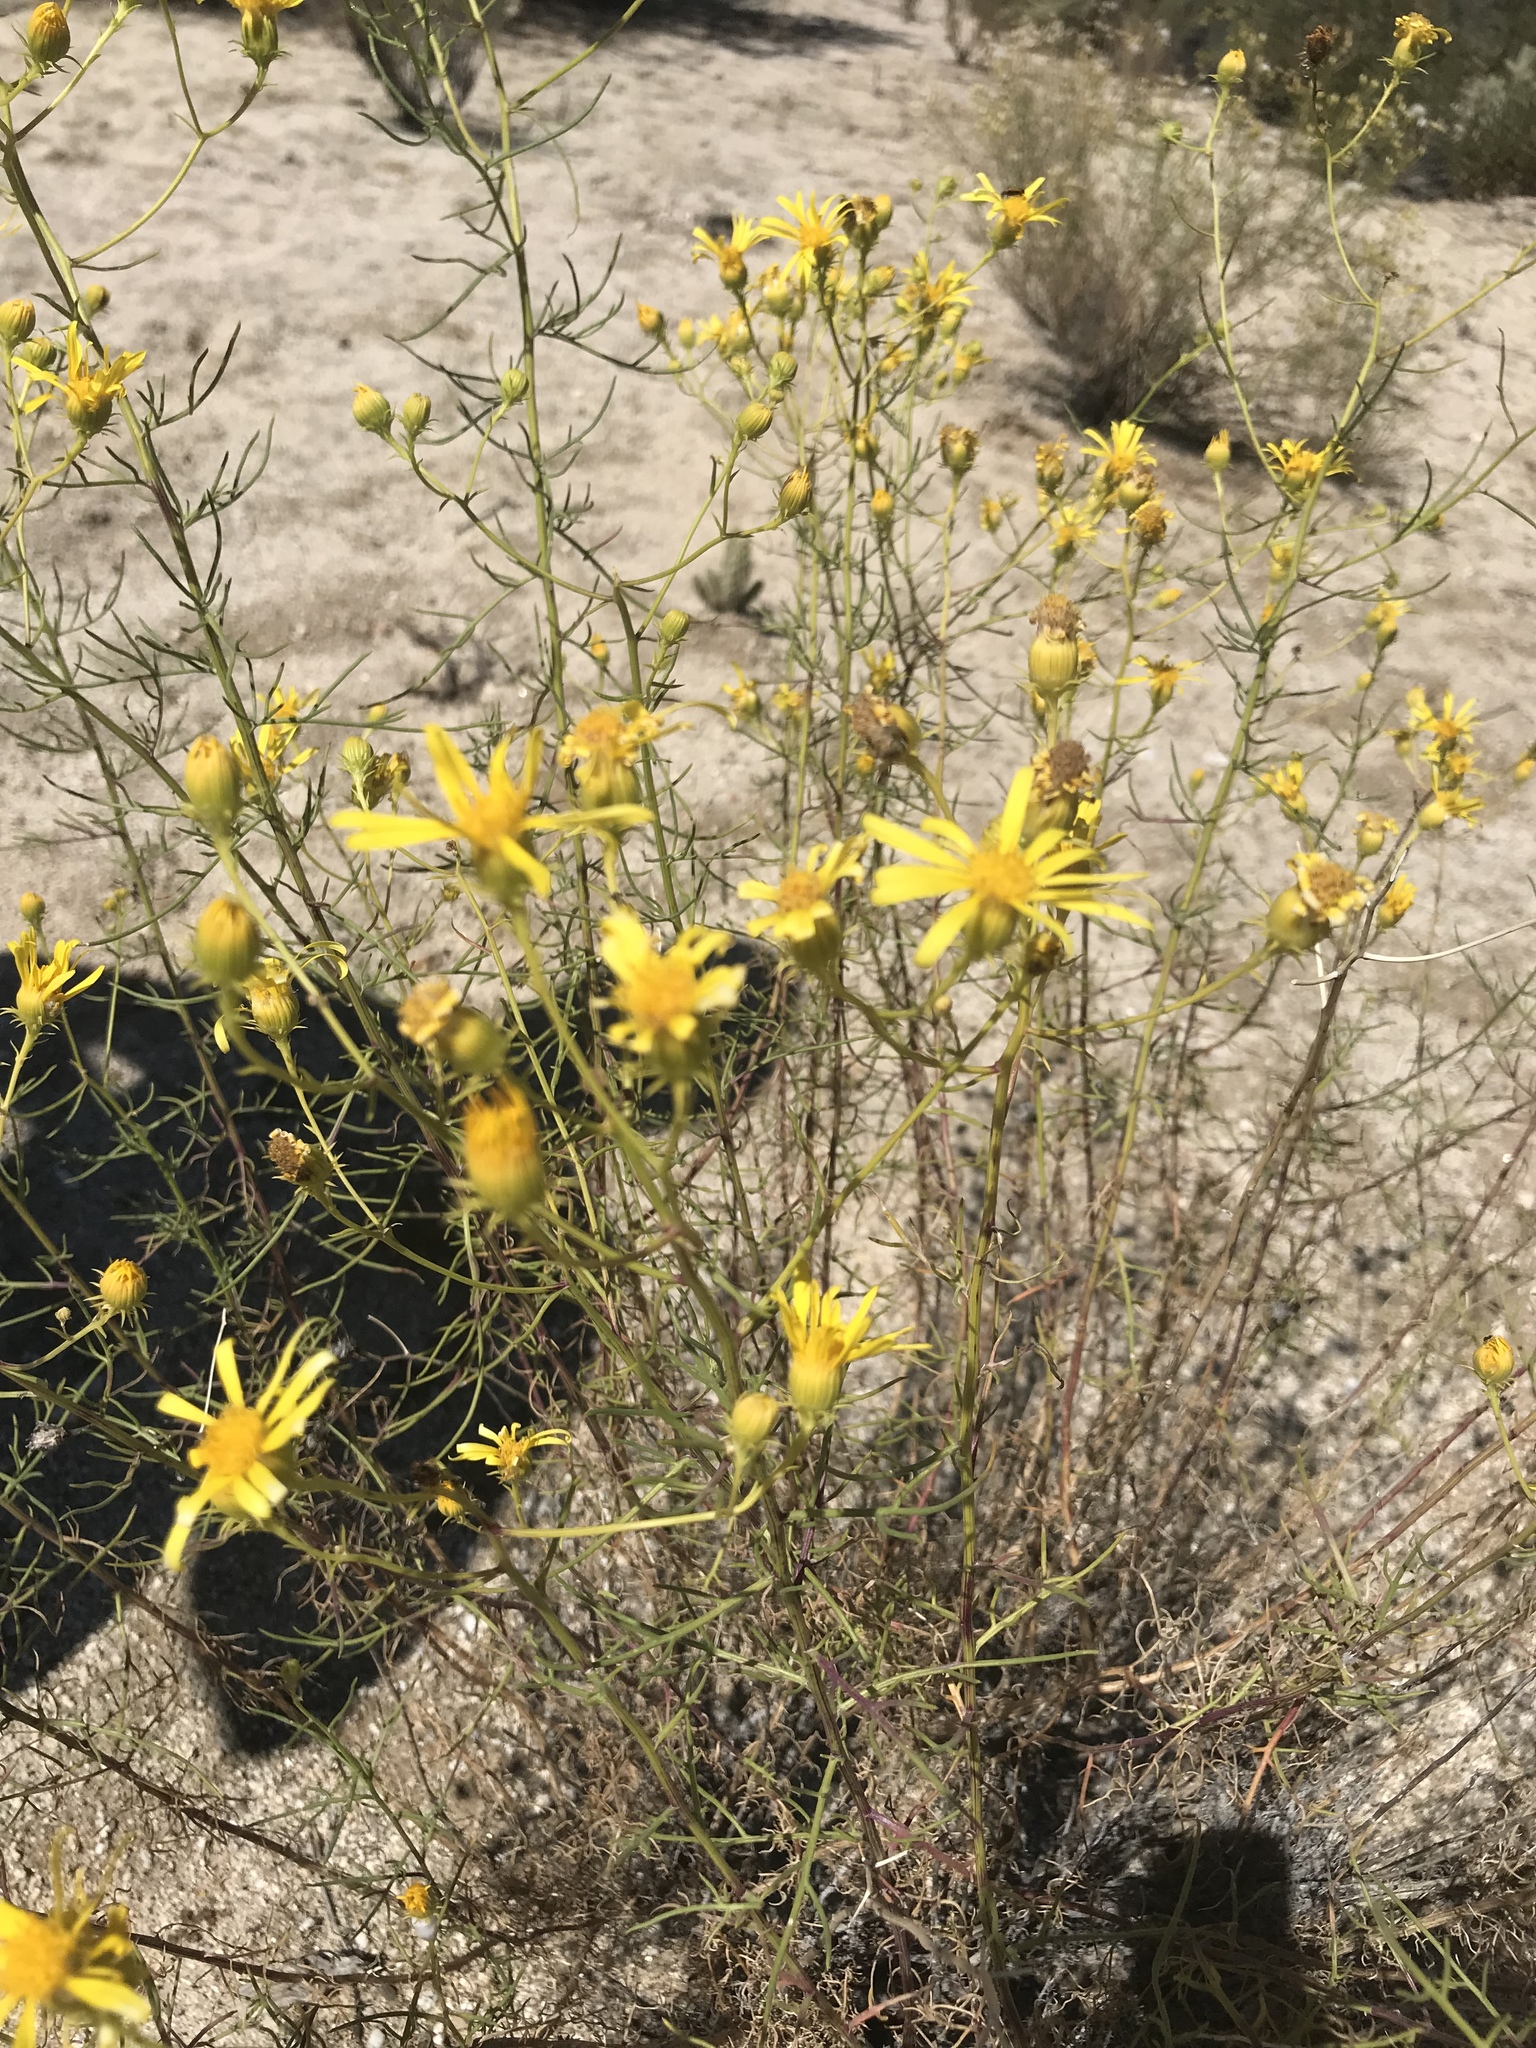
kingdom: Plantae
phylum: Tracheophyta
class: Magnoliopsida
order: Asterales
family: Asteraceae
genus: Senecio
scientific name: Senecio flaccidus
